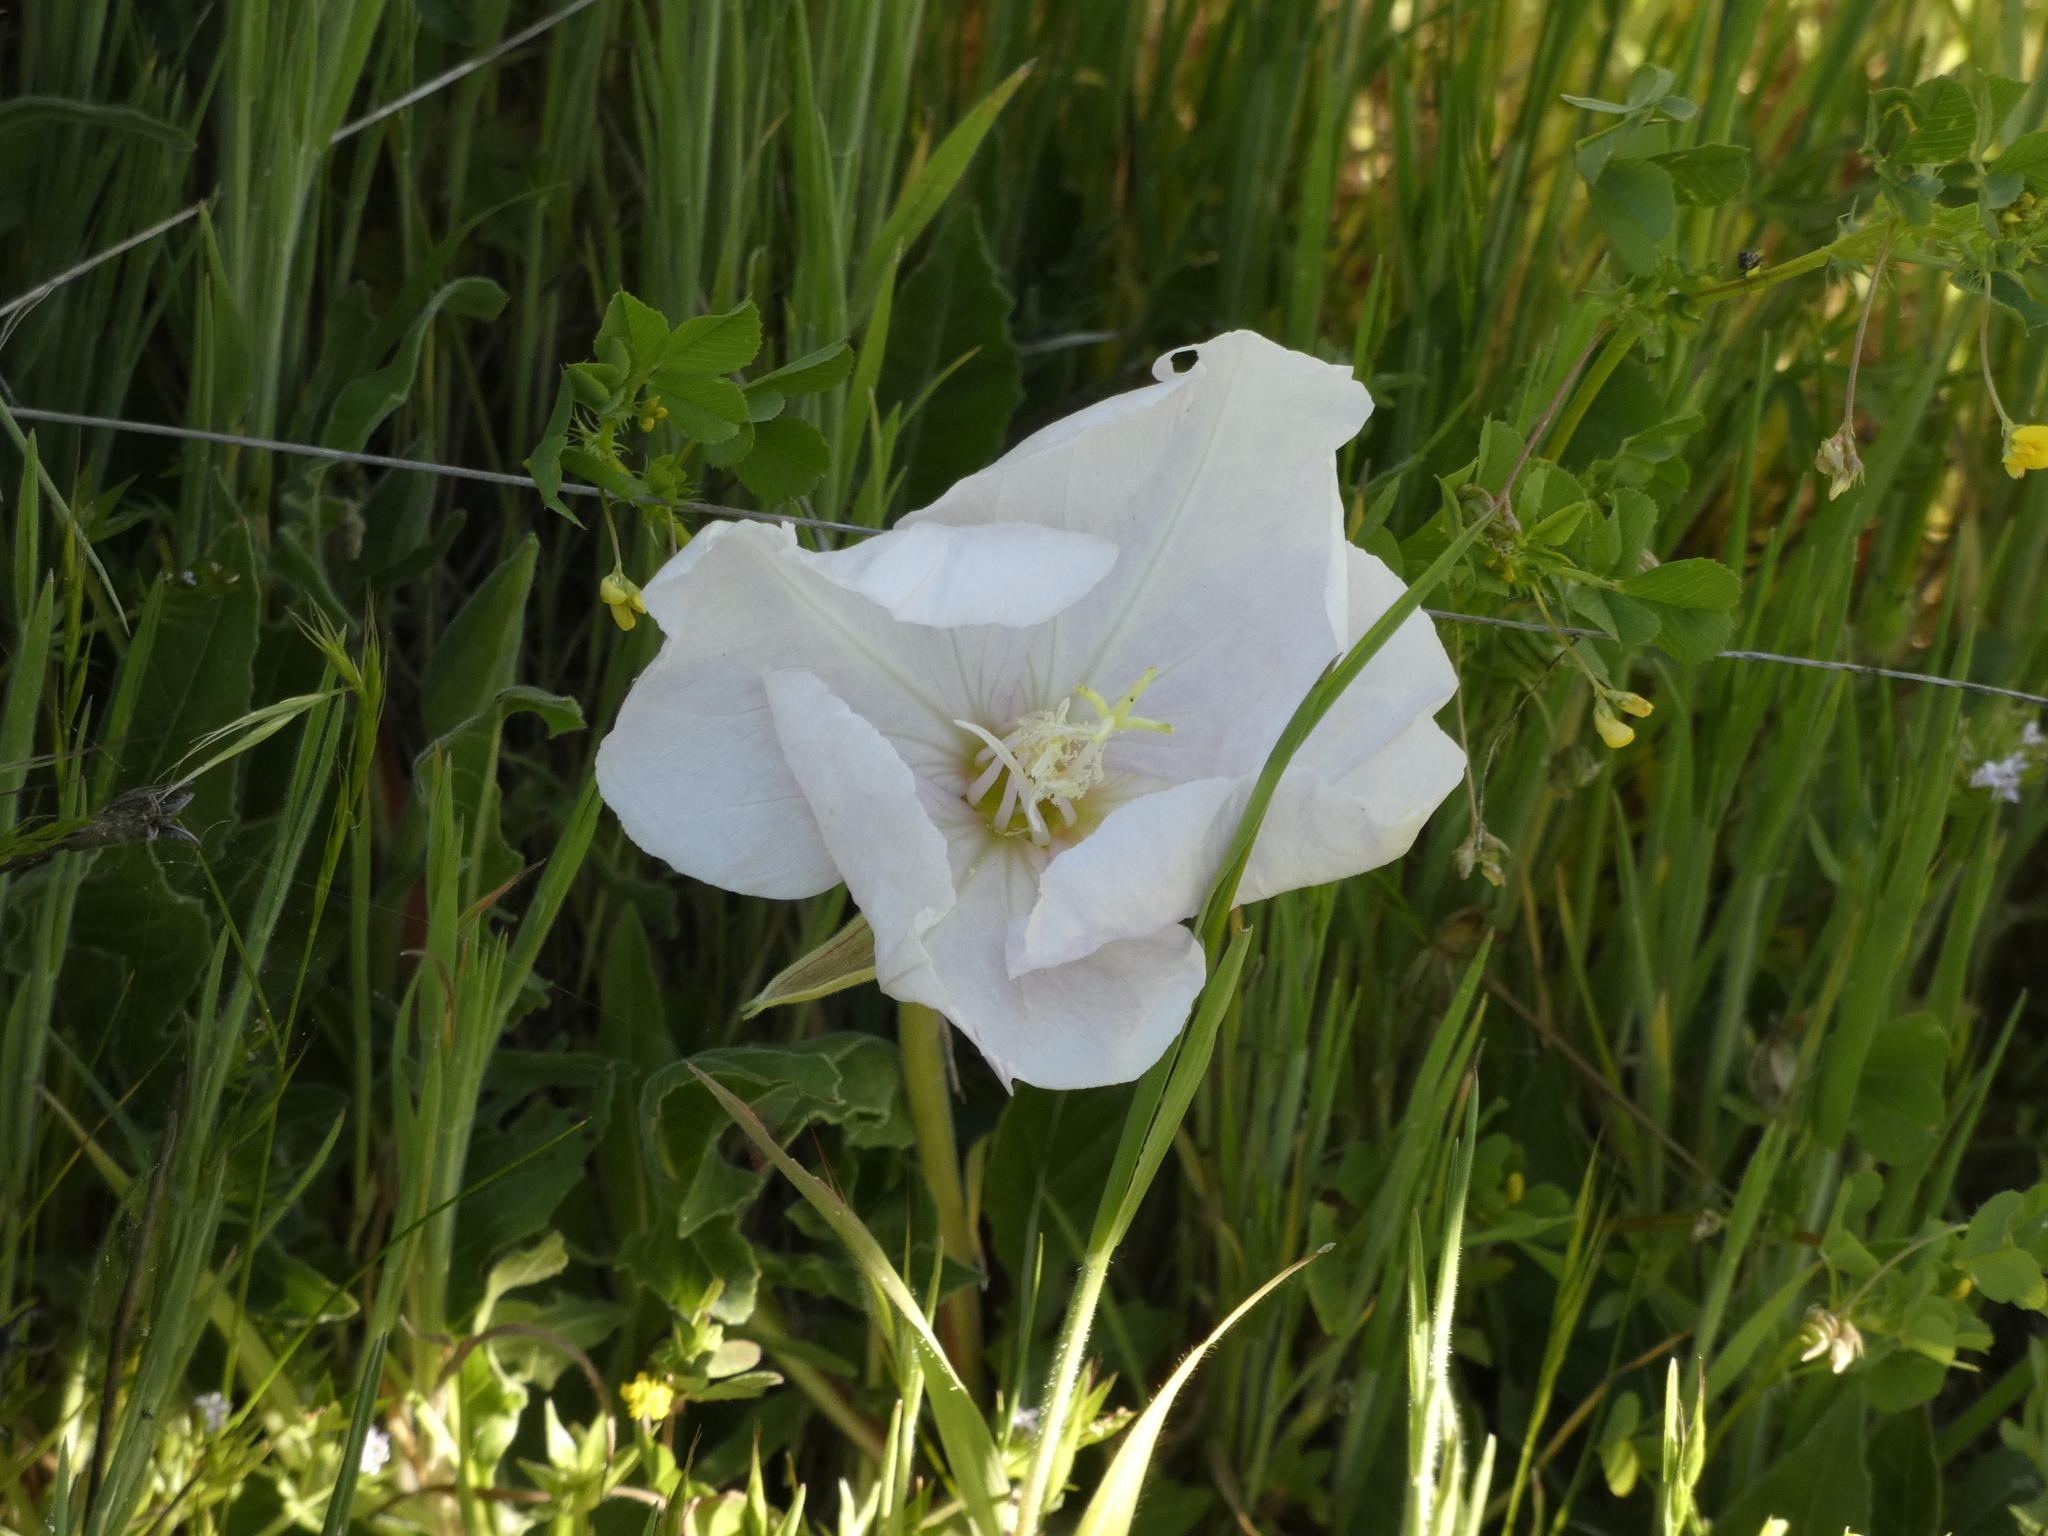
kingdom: Plantae
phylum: Tracheophyta
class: Magnoliopsida
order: Myrtales
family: Onagraceae
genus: Oenothera
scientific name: Oenothera acaulis
